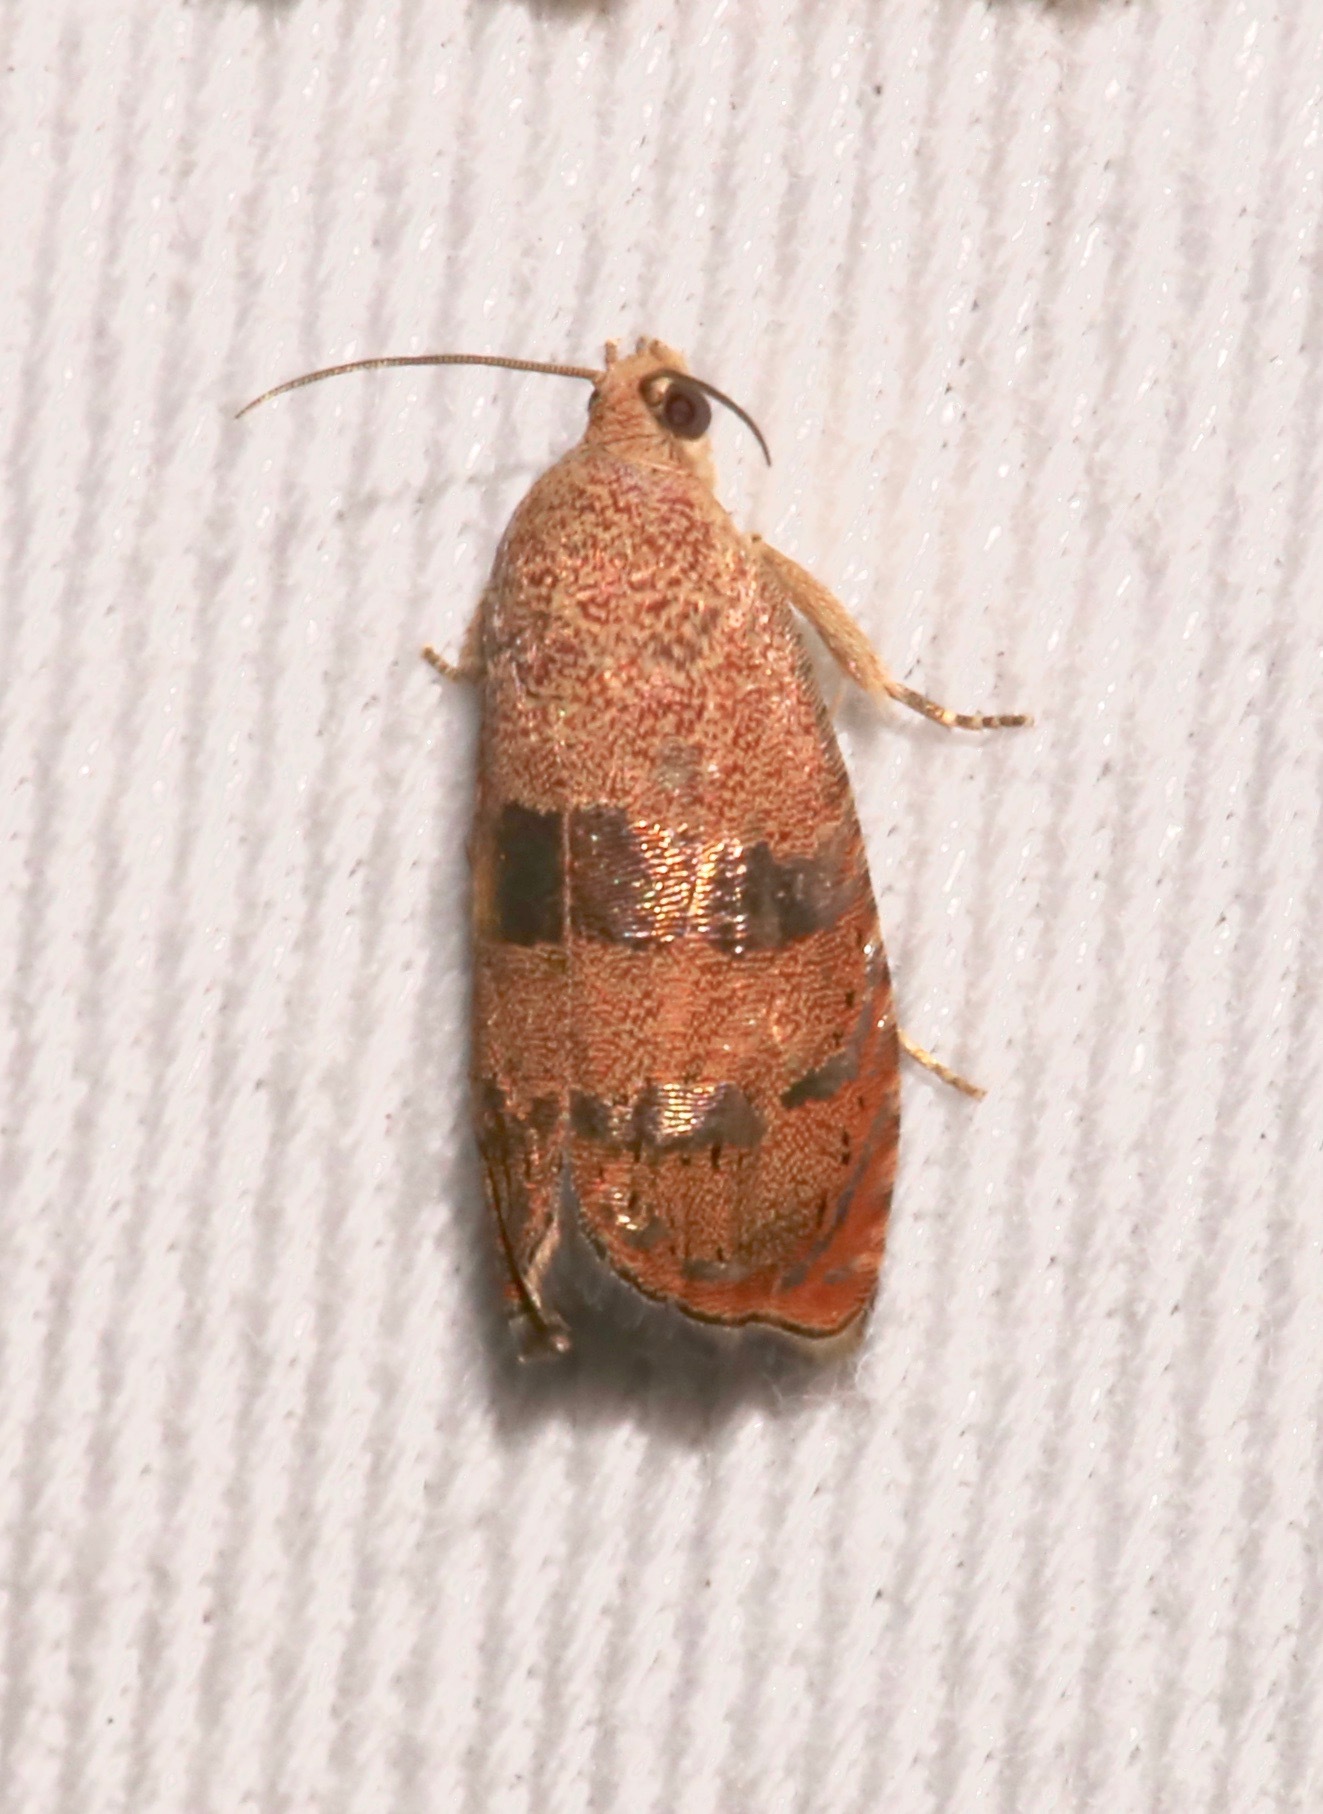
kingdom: Animalia
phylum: Arthropoda
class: Insecta
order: Lepidoptera
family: Tortricidae
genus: Cydia
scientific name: Cydia latiferreana
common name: Filbertworm moth
